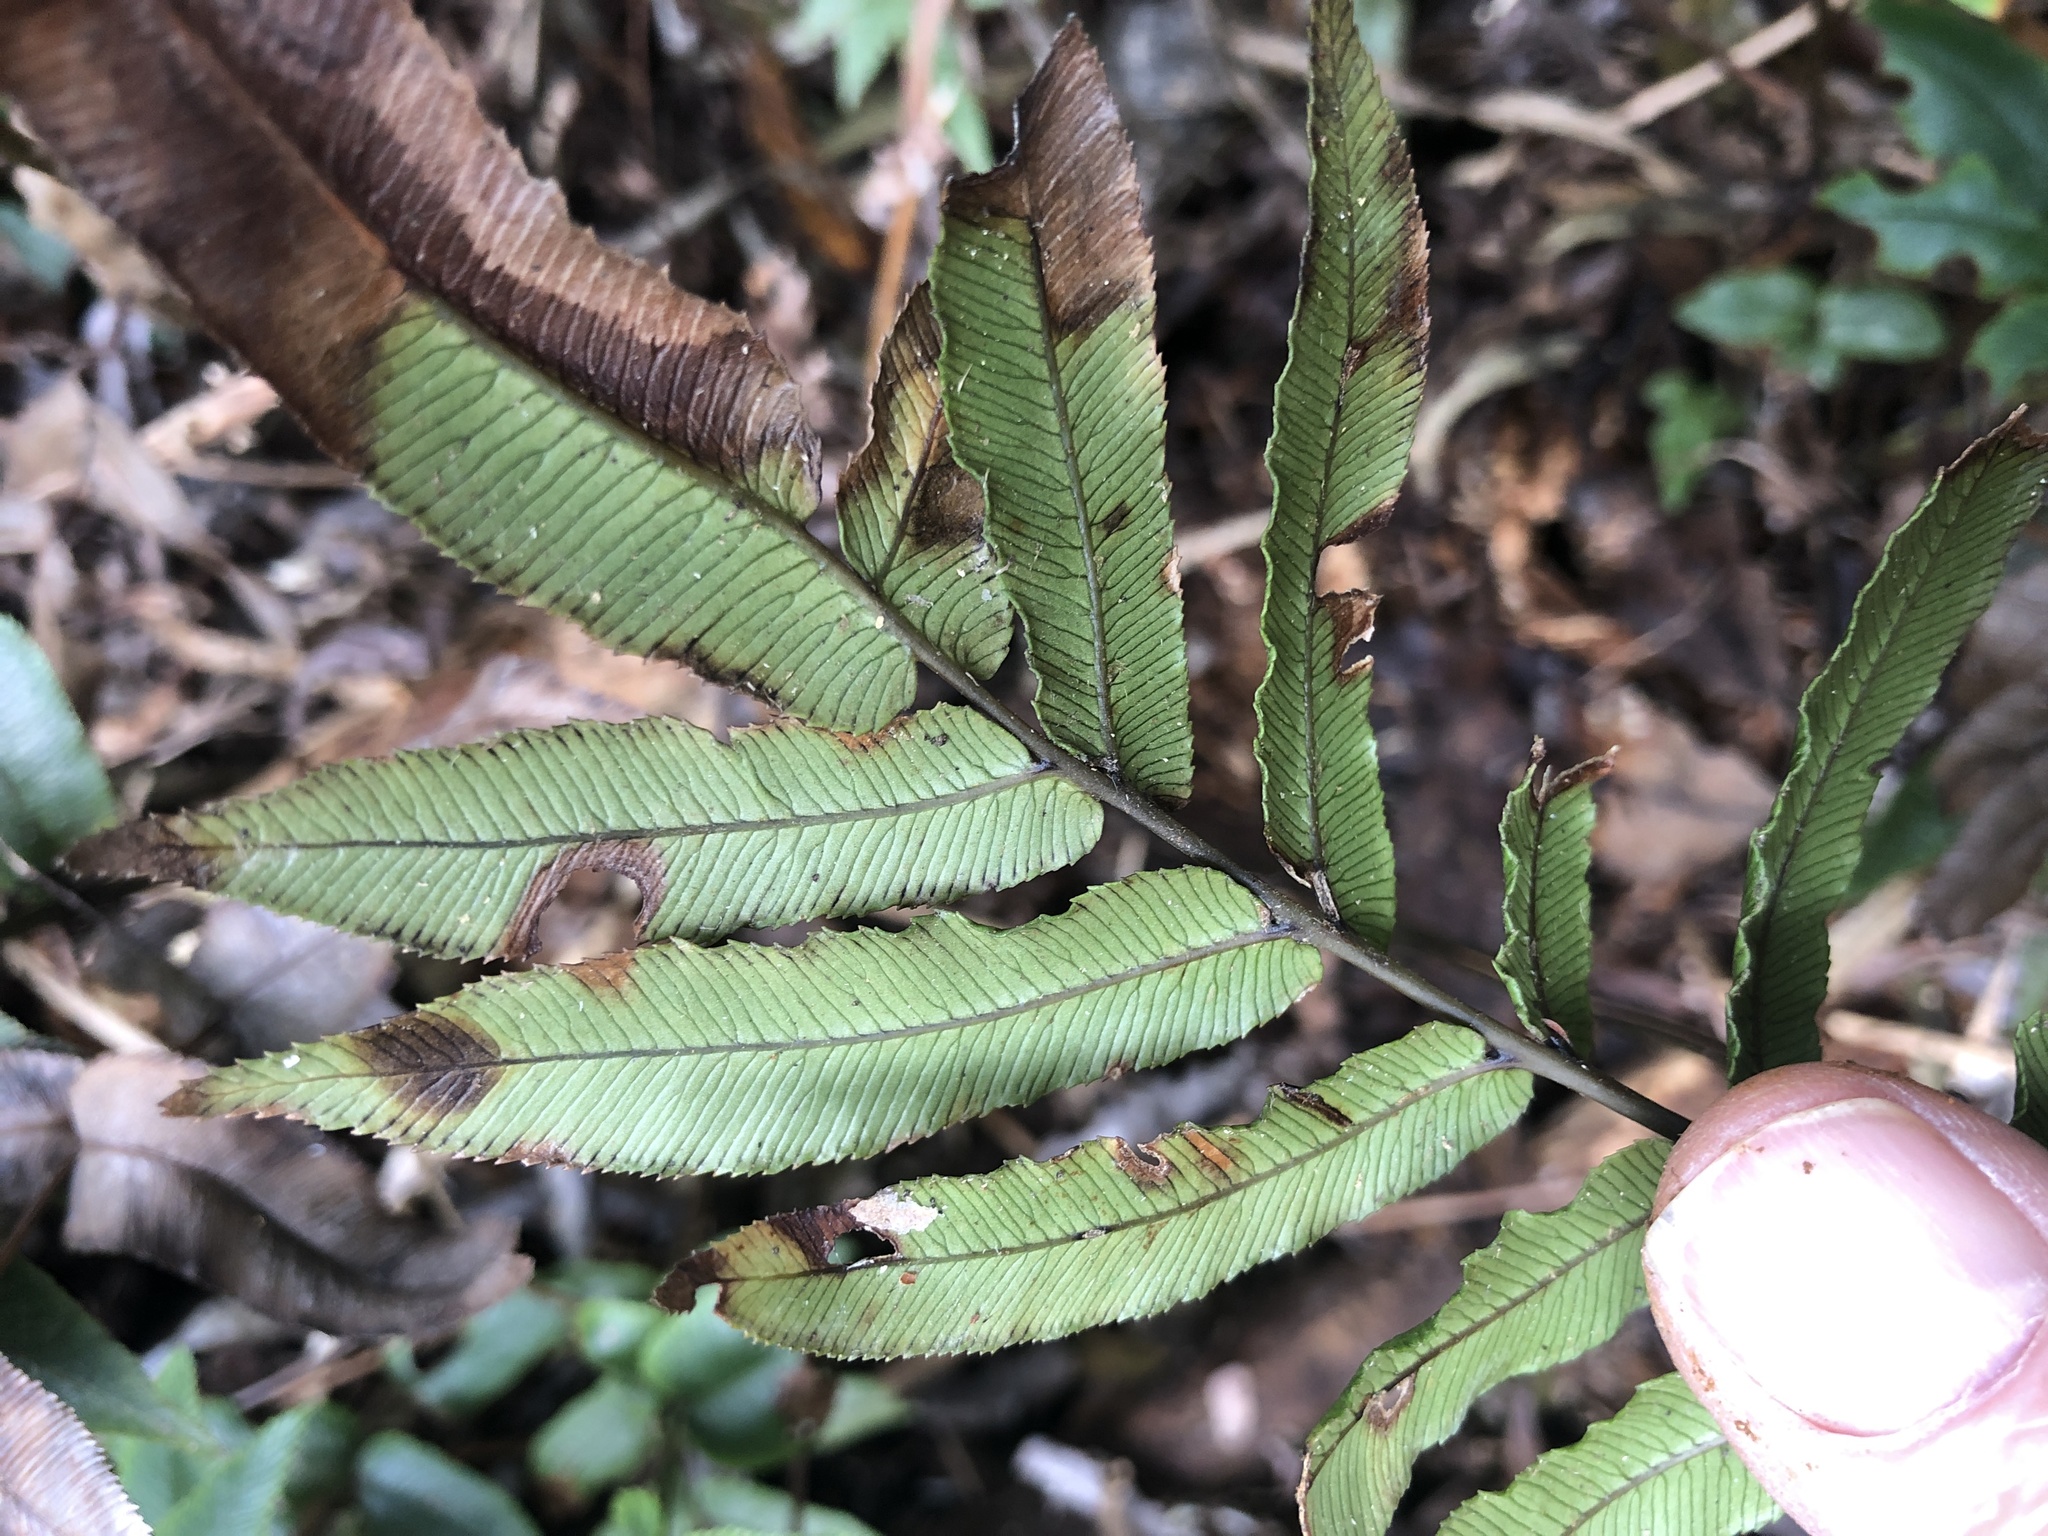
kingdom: Plantae
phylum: Tracheophyta
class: Polypodiopsida
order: Polypodiales
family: Blechnaceae
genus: Parablechnum
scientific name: Parablechnum procerum
